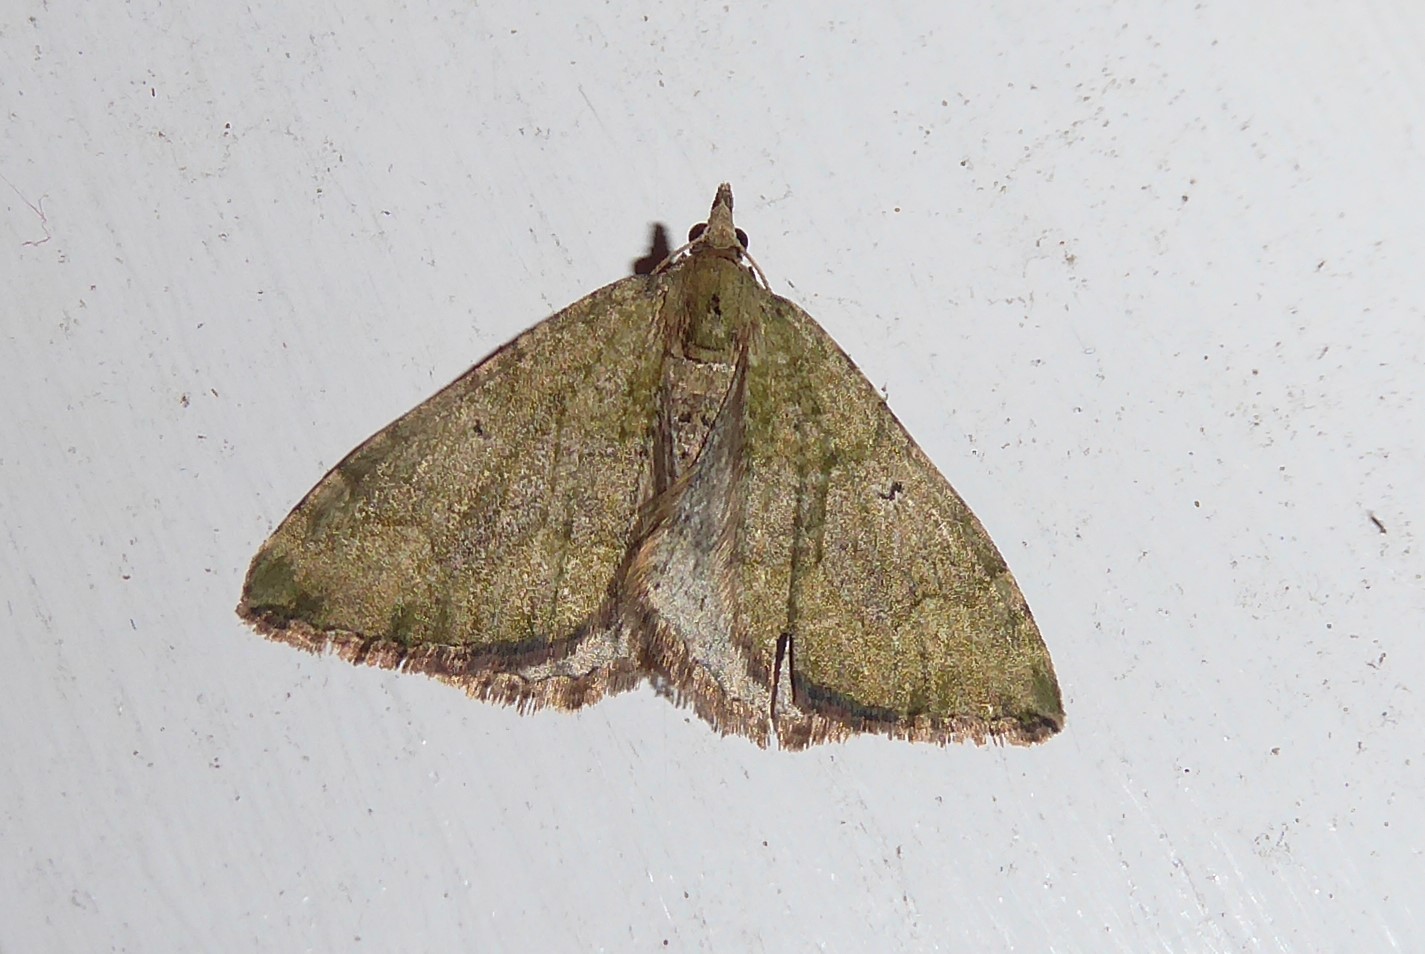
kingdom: Animalia
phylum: Arthropoda
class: Insecta
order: Lepidoptera
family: Geometridae
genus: Epyaxa
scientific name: Epyaxa rosearia
